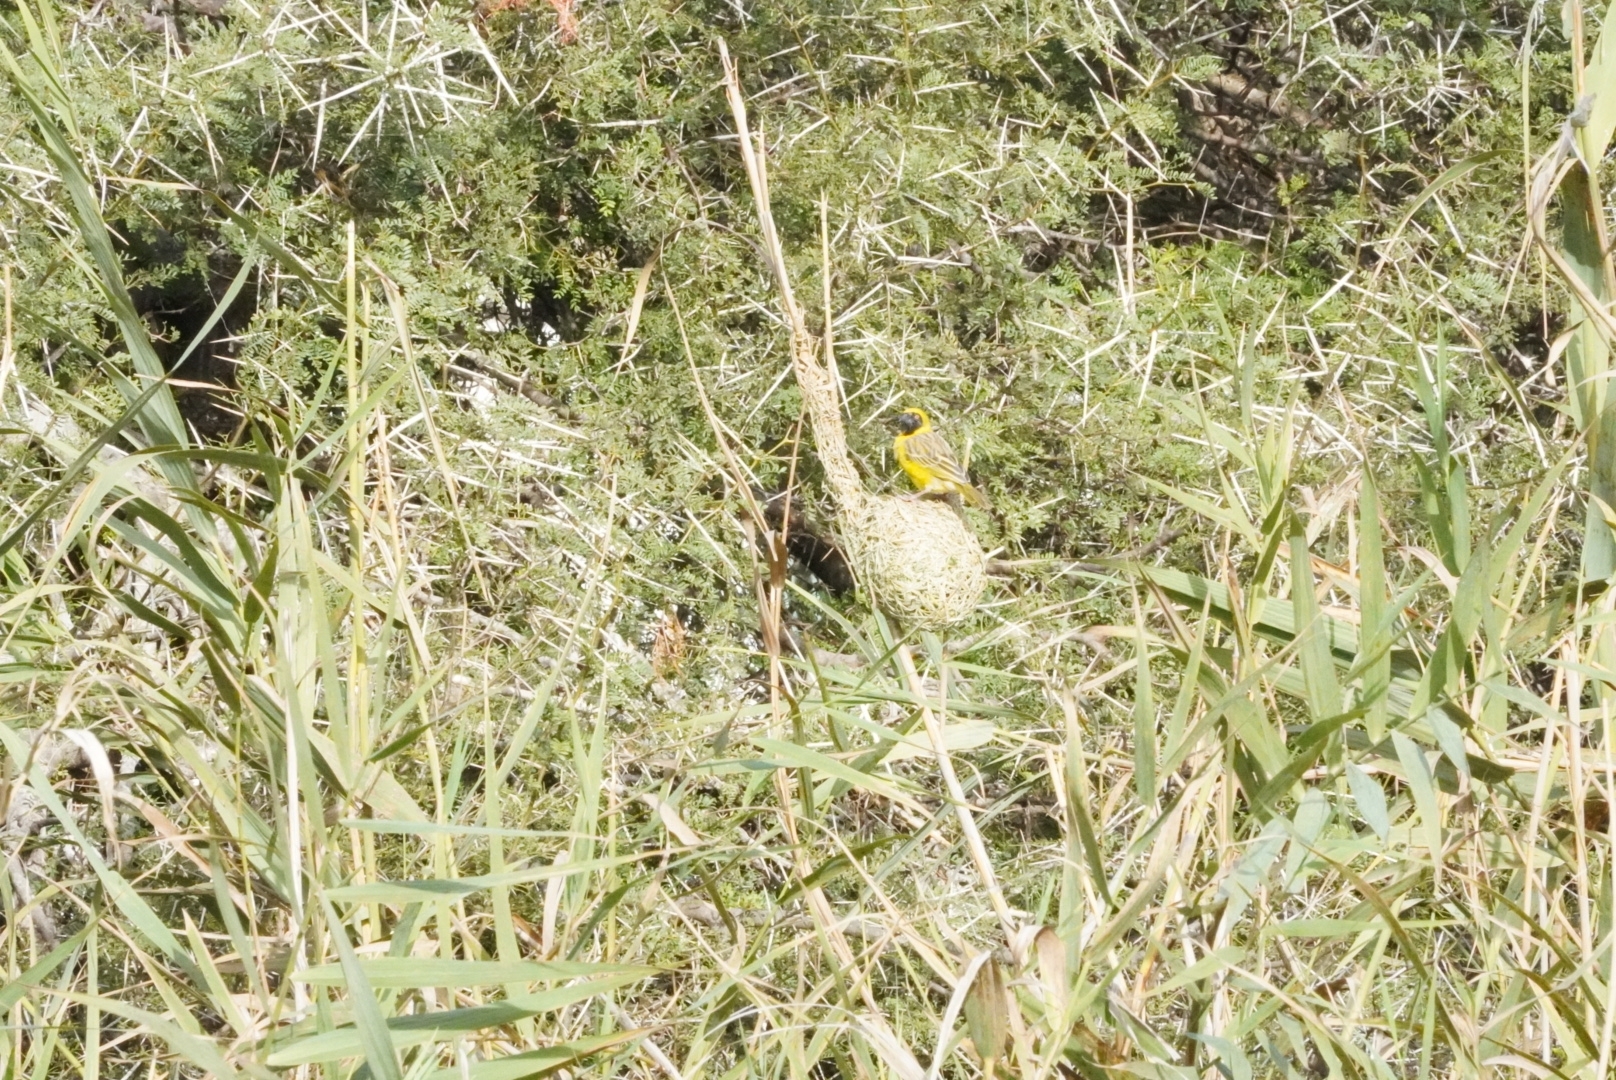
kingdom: Animalia
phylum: Chordata
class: Aves
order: Passeriformes
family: Ploceidae
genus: Ploceus
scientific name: Ploceus velatus
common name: Southern masked weaver
